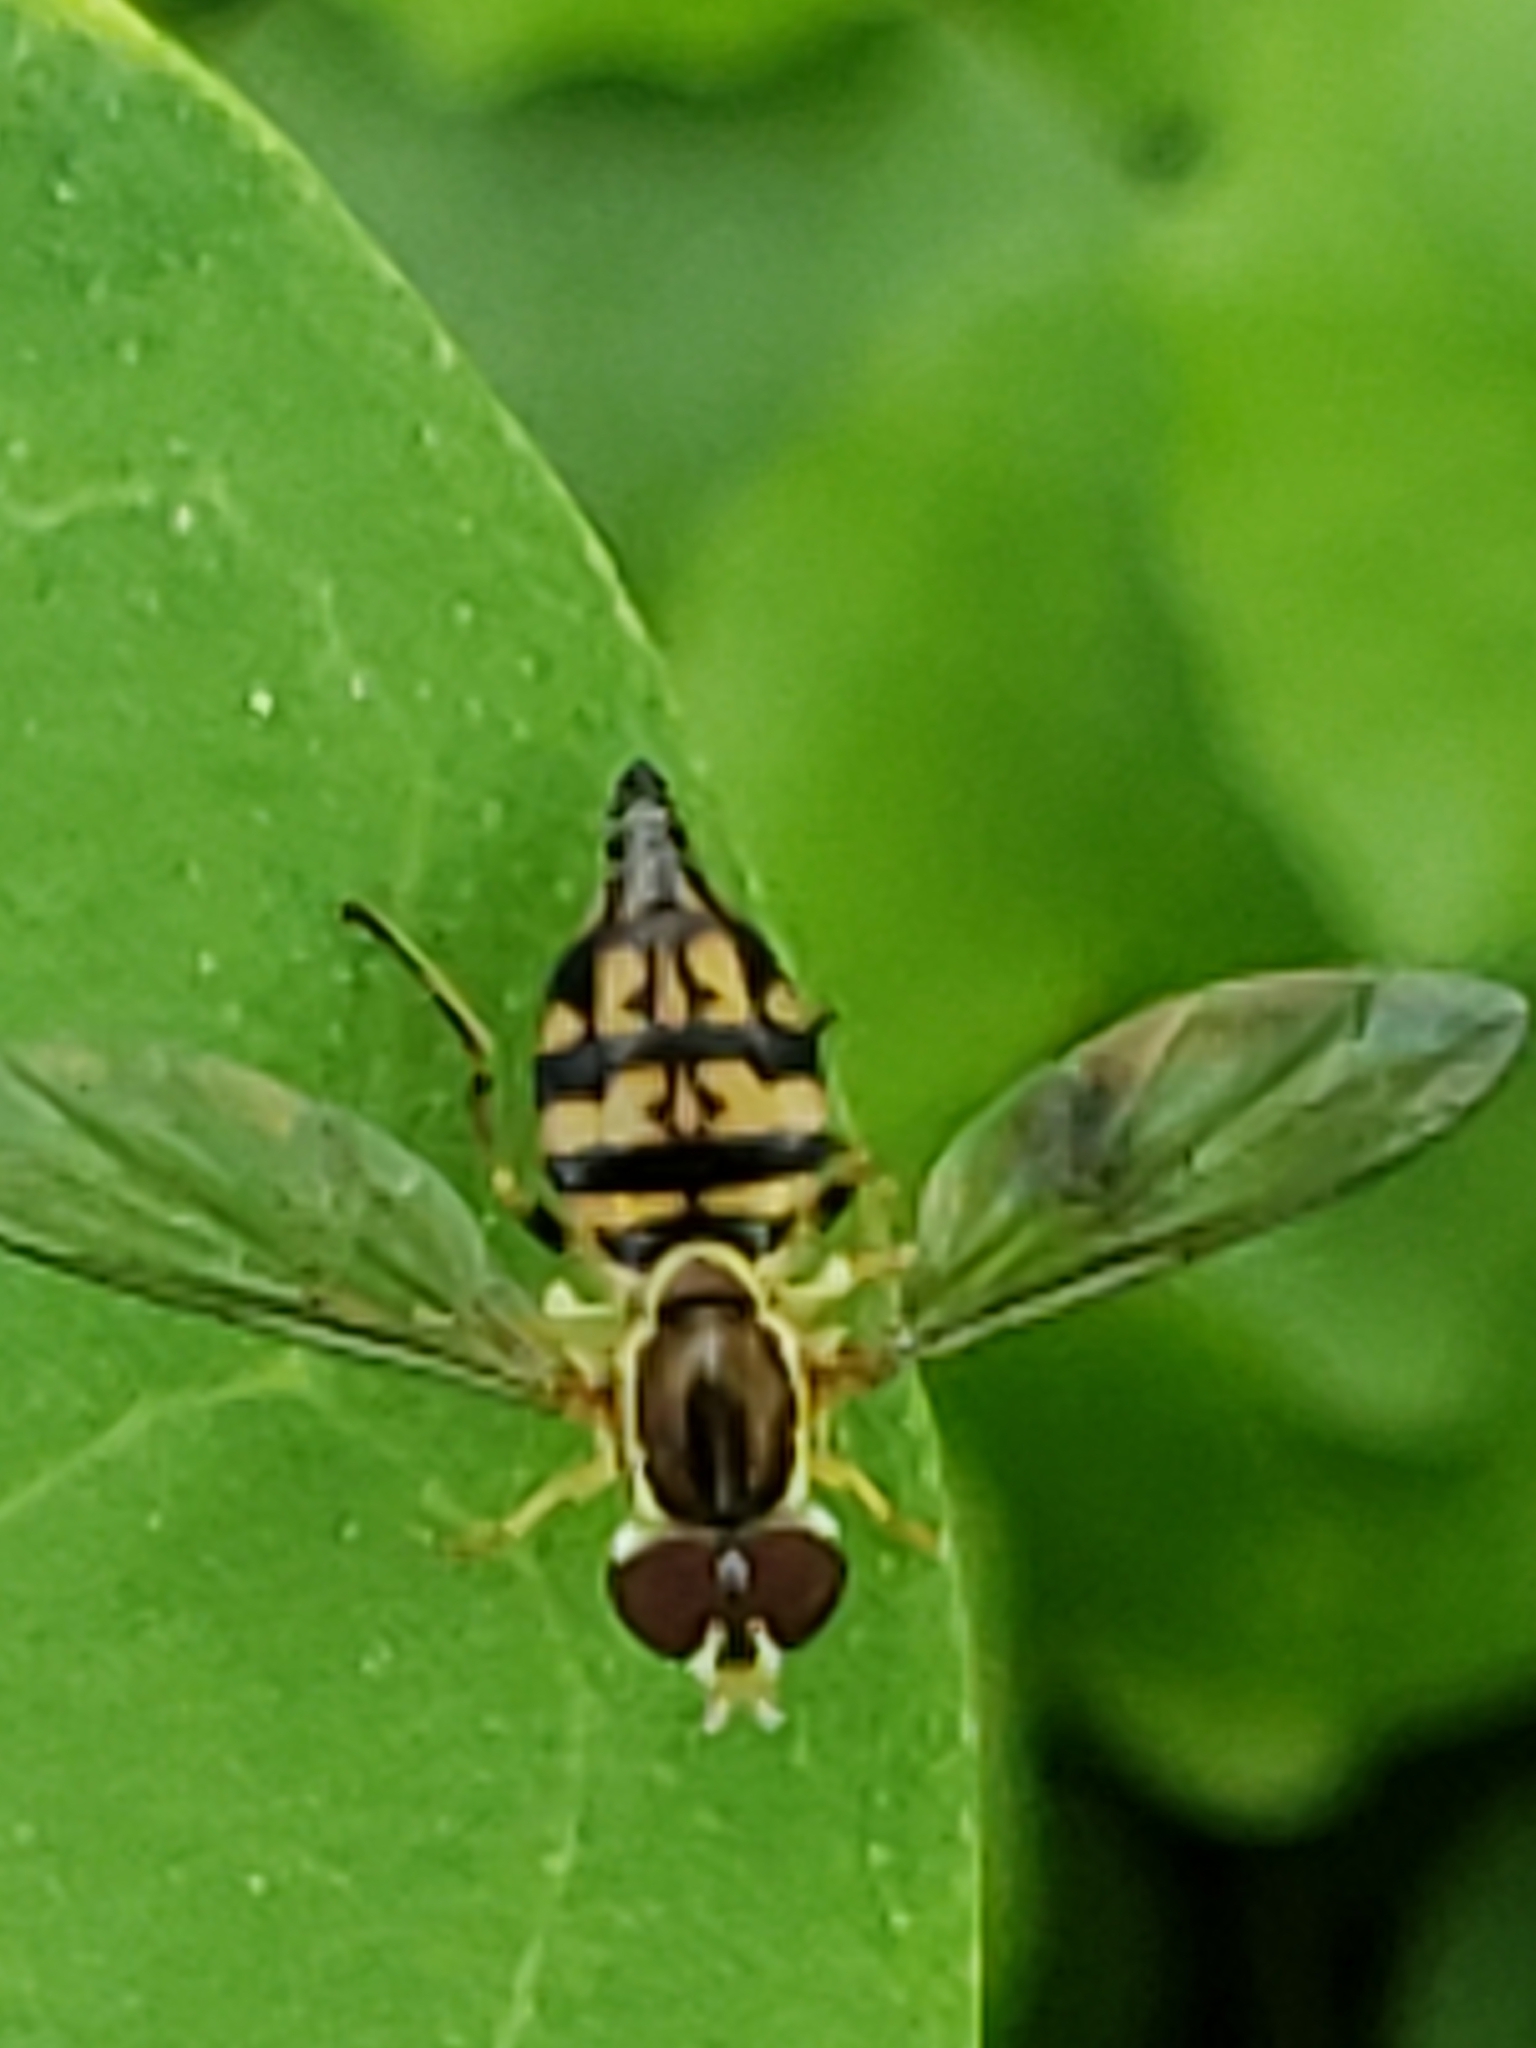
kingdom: Animalia
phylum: Arthropoda
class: Insecta
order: Diptera
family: Syrphidae
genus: Toxomerus
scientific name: Toxomerus geminatus
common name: Eastern calligrapher
